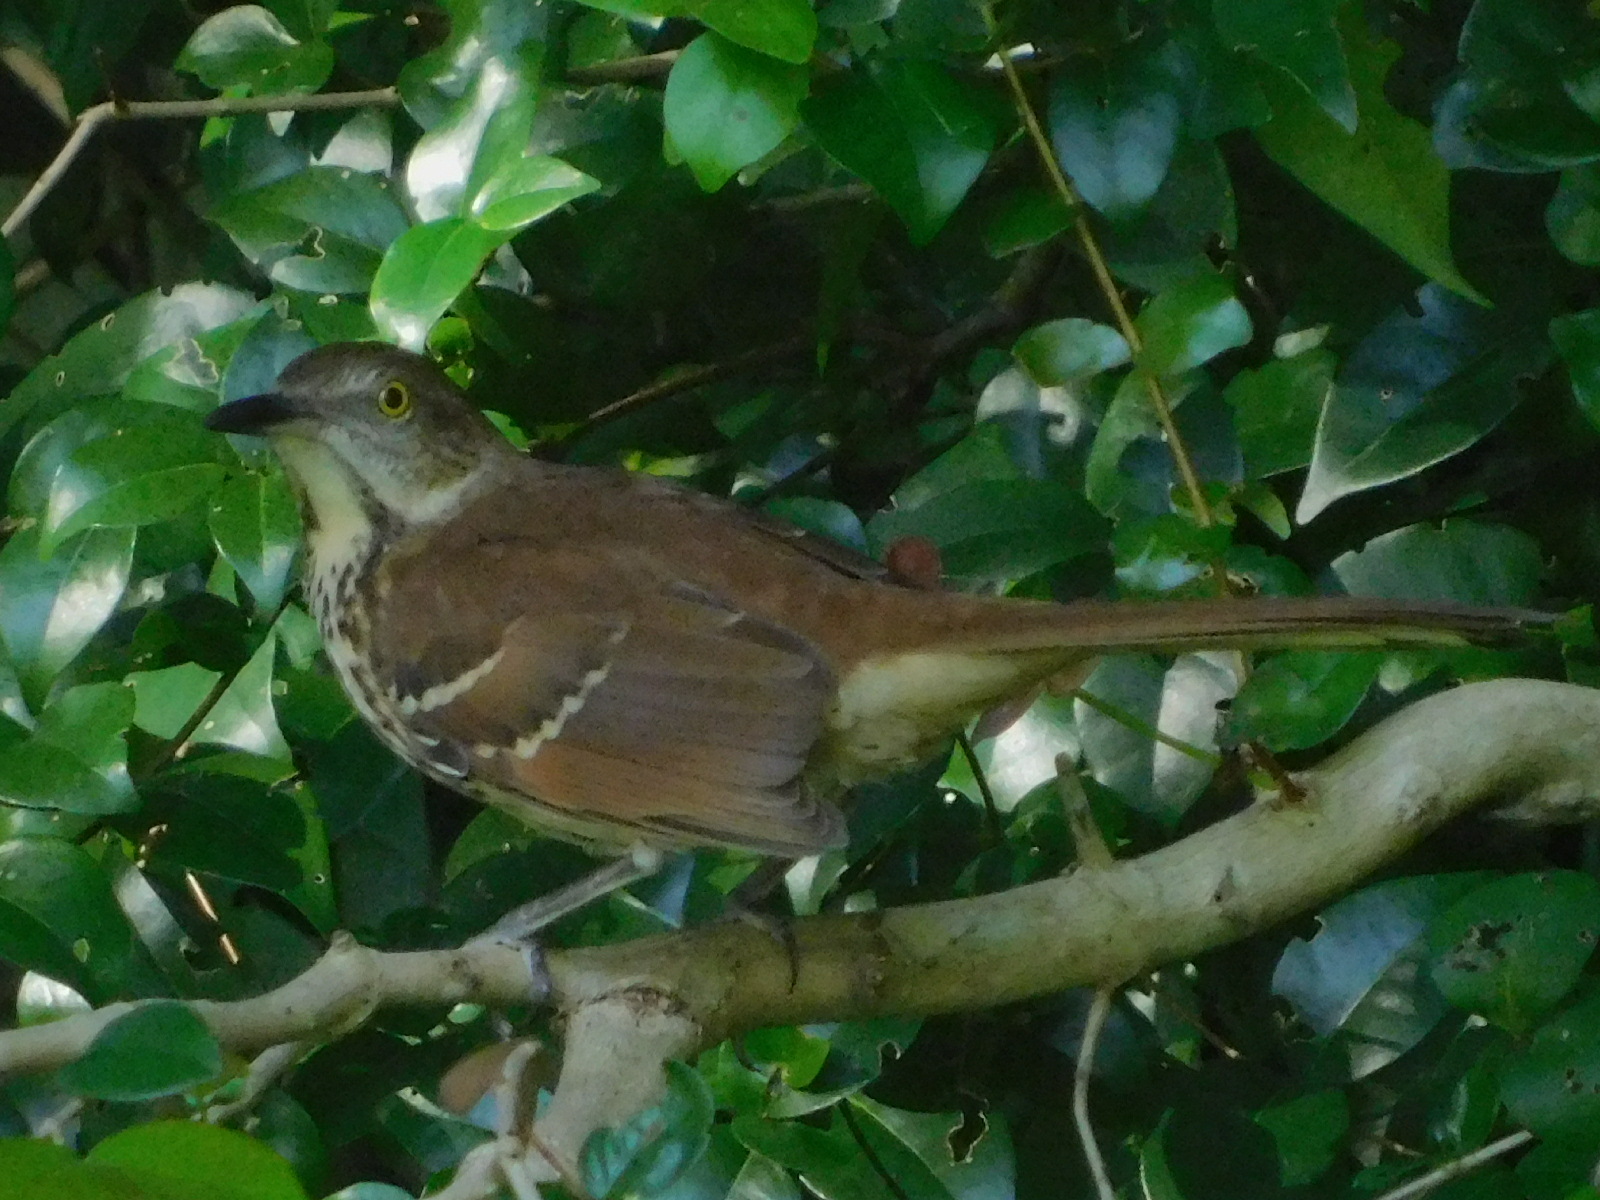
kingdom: Animalia
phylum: Chordata
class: Aves
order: Passeriformes
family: Mimidae
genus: Toxostoma
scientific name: Toxostoma rufum
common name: Brown thrasher
